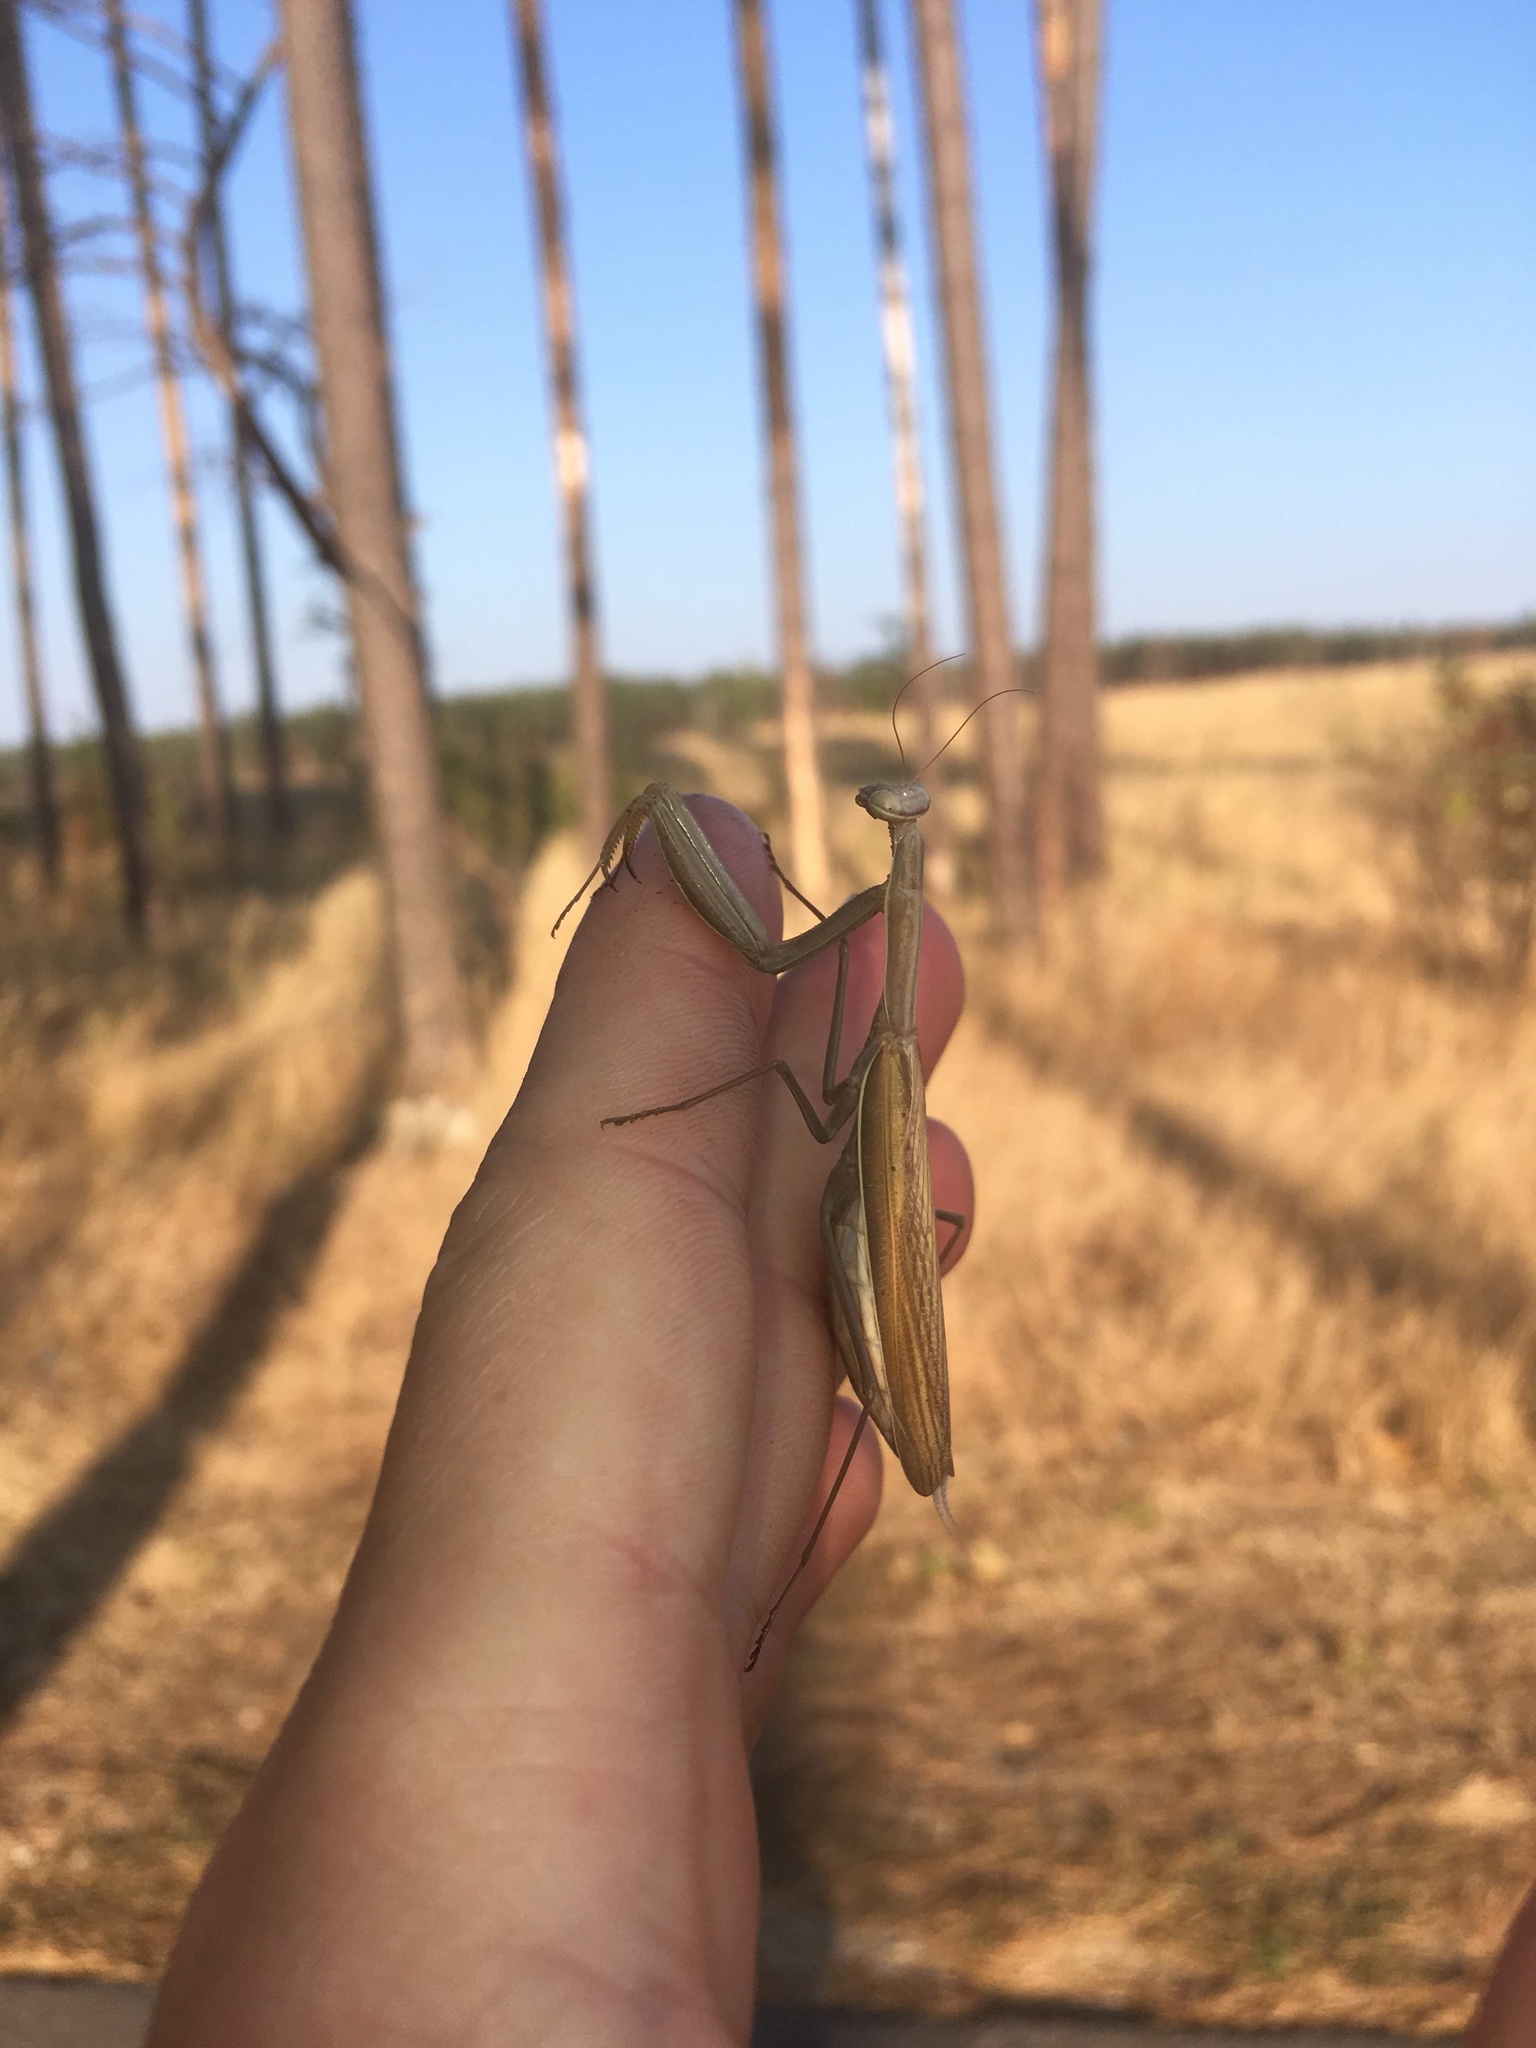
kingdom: Animalia
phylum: Arthropoda
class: Insecta
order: Mantodea
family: Mantidae
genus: Mantis
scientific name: Mantis religiosa
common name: Praying mantis
